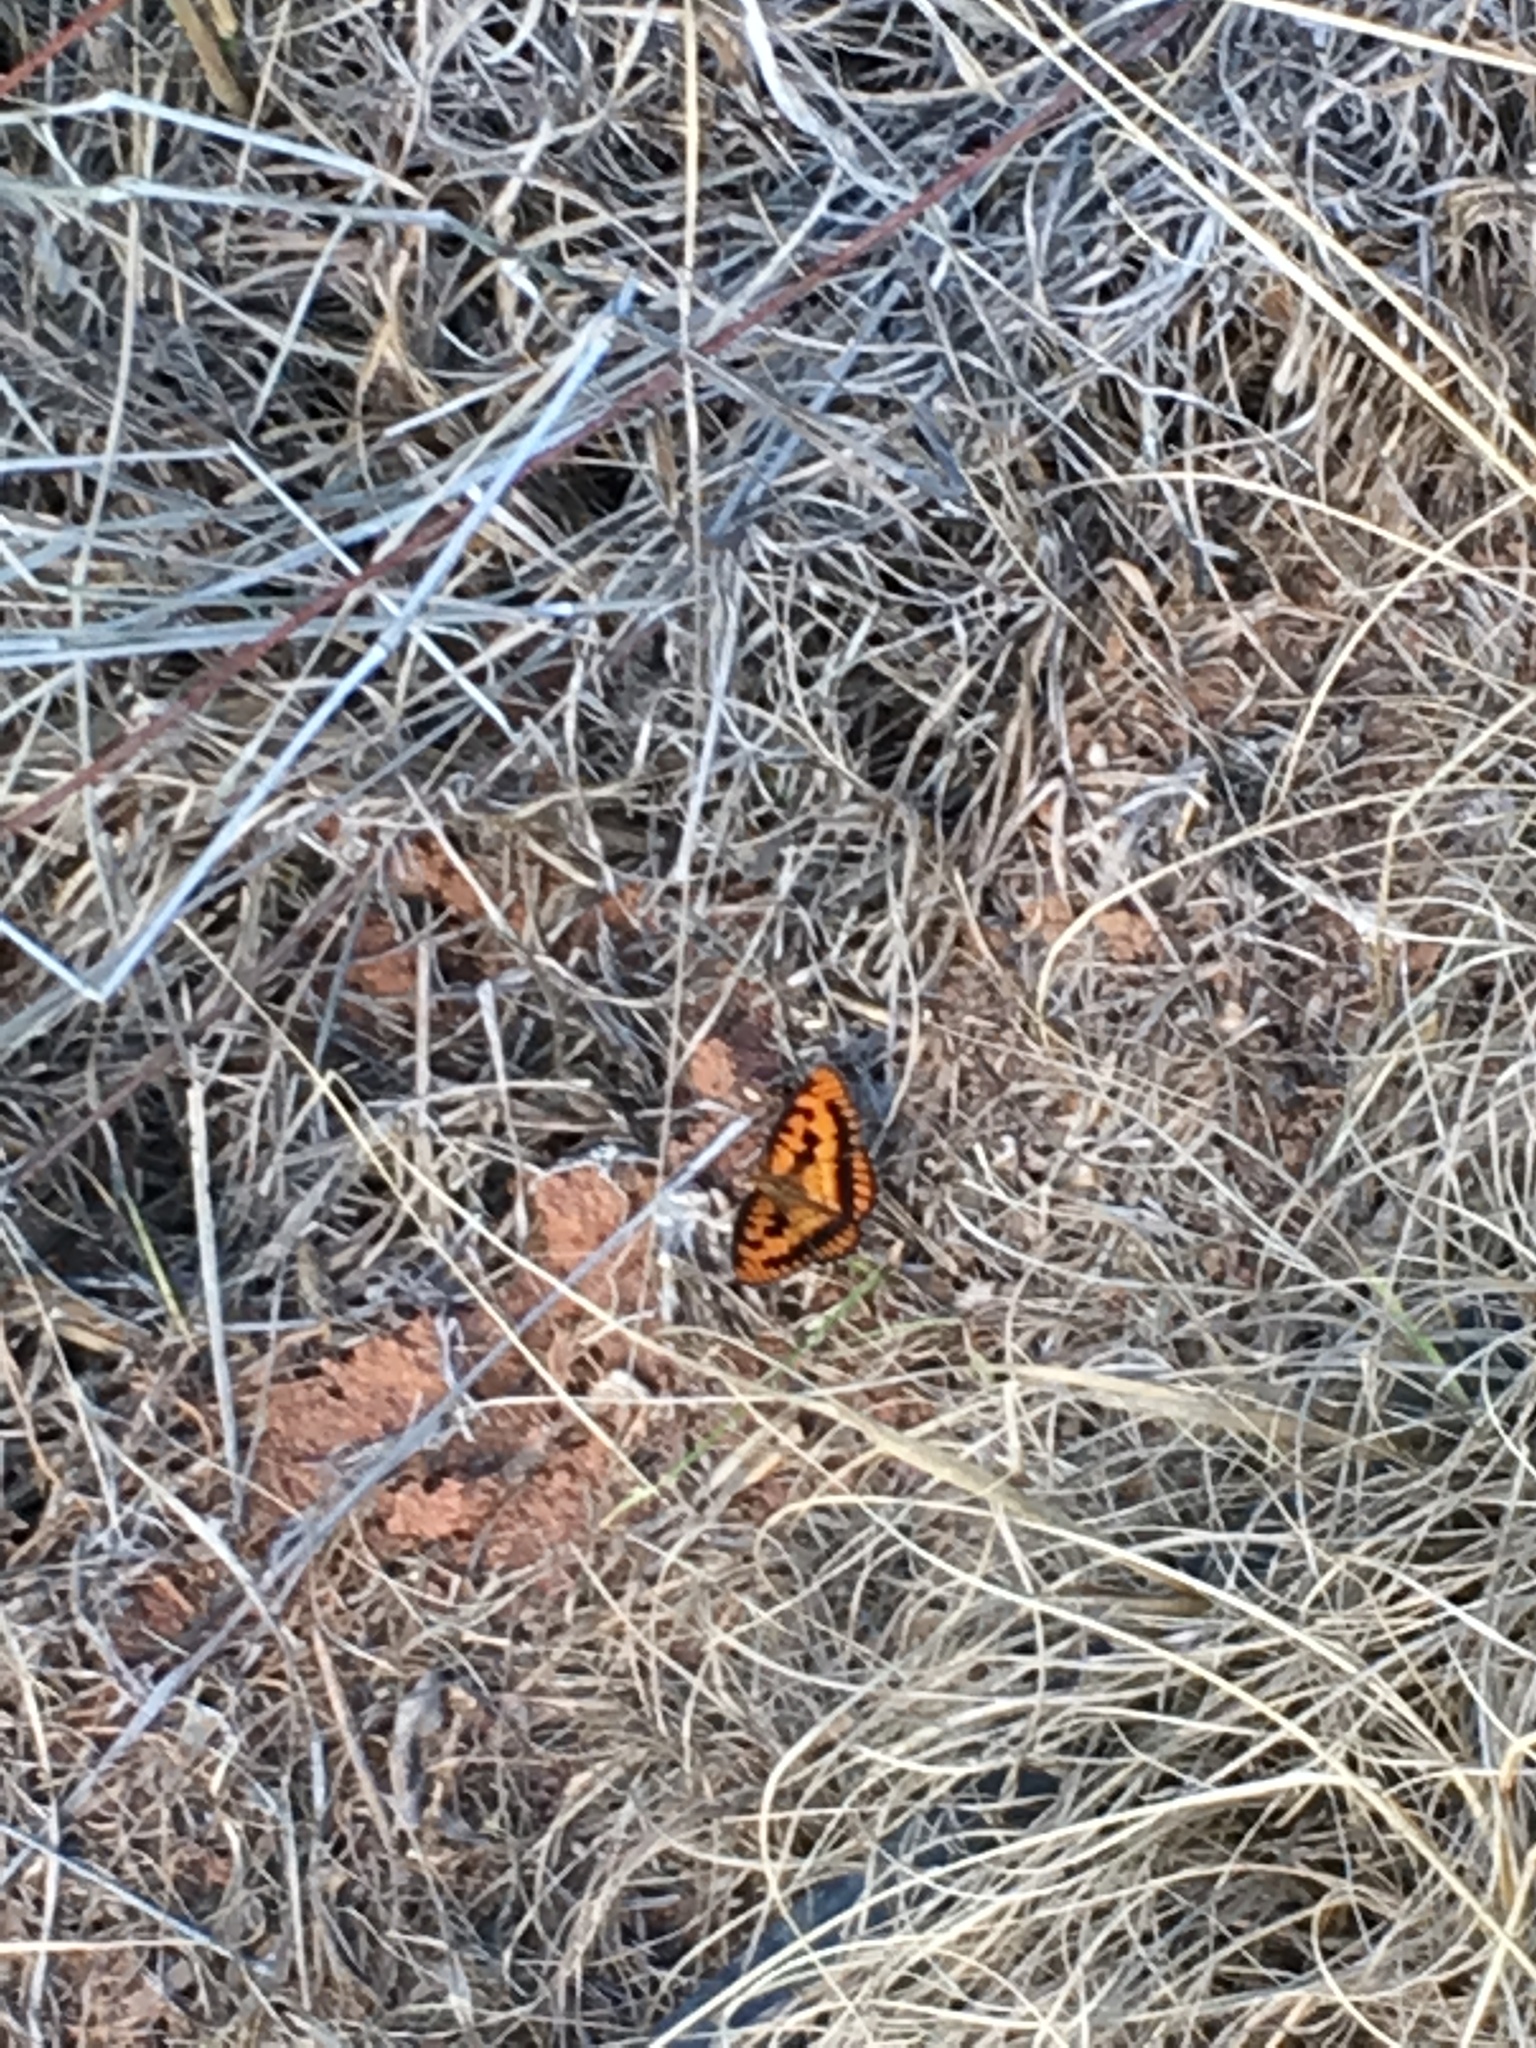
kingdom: Animalia
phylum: Arthropoda
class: Insecta
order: Lepidoptera
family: Nymphalidae
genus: Byblia
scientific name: Byblia ilithyia
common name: Spotted joker
